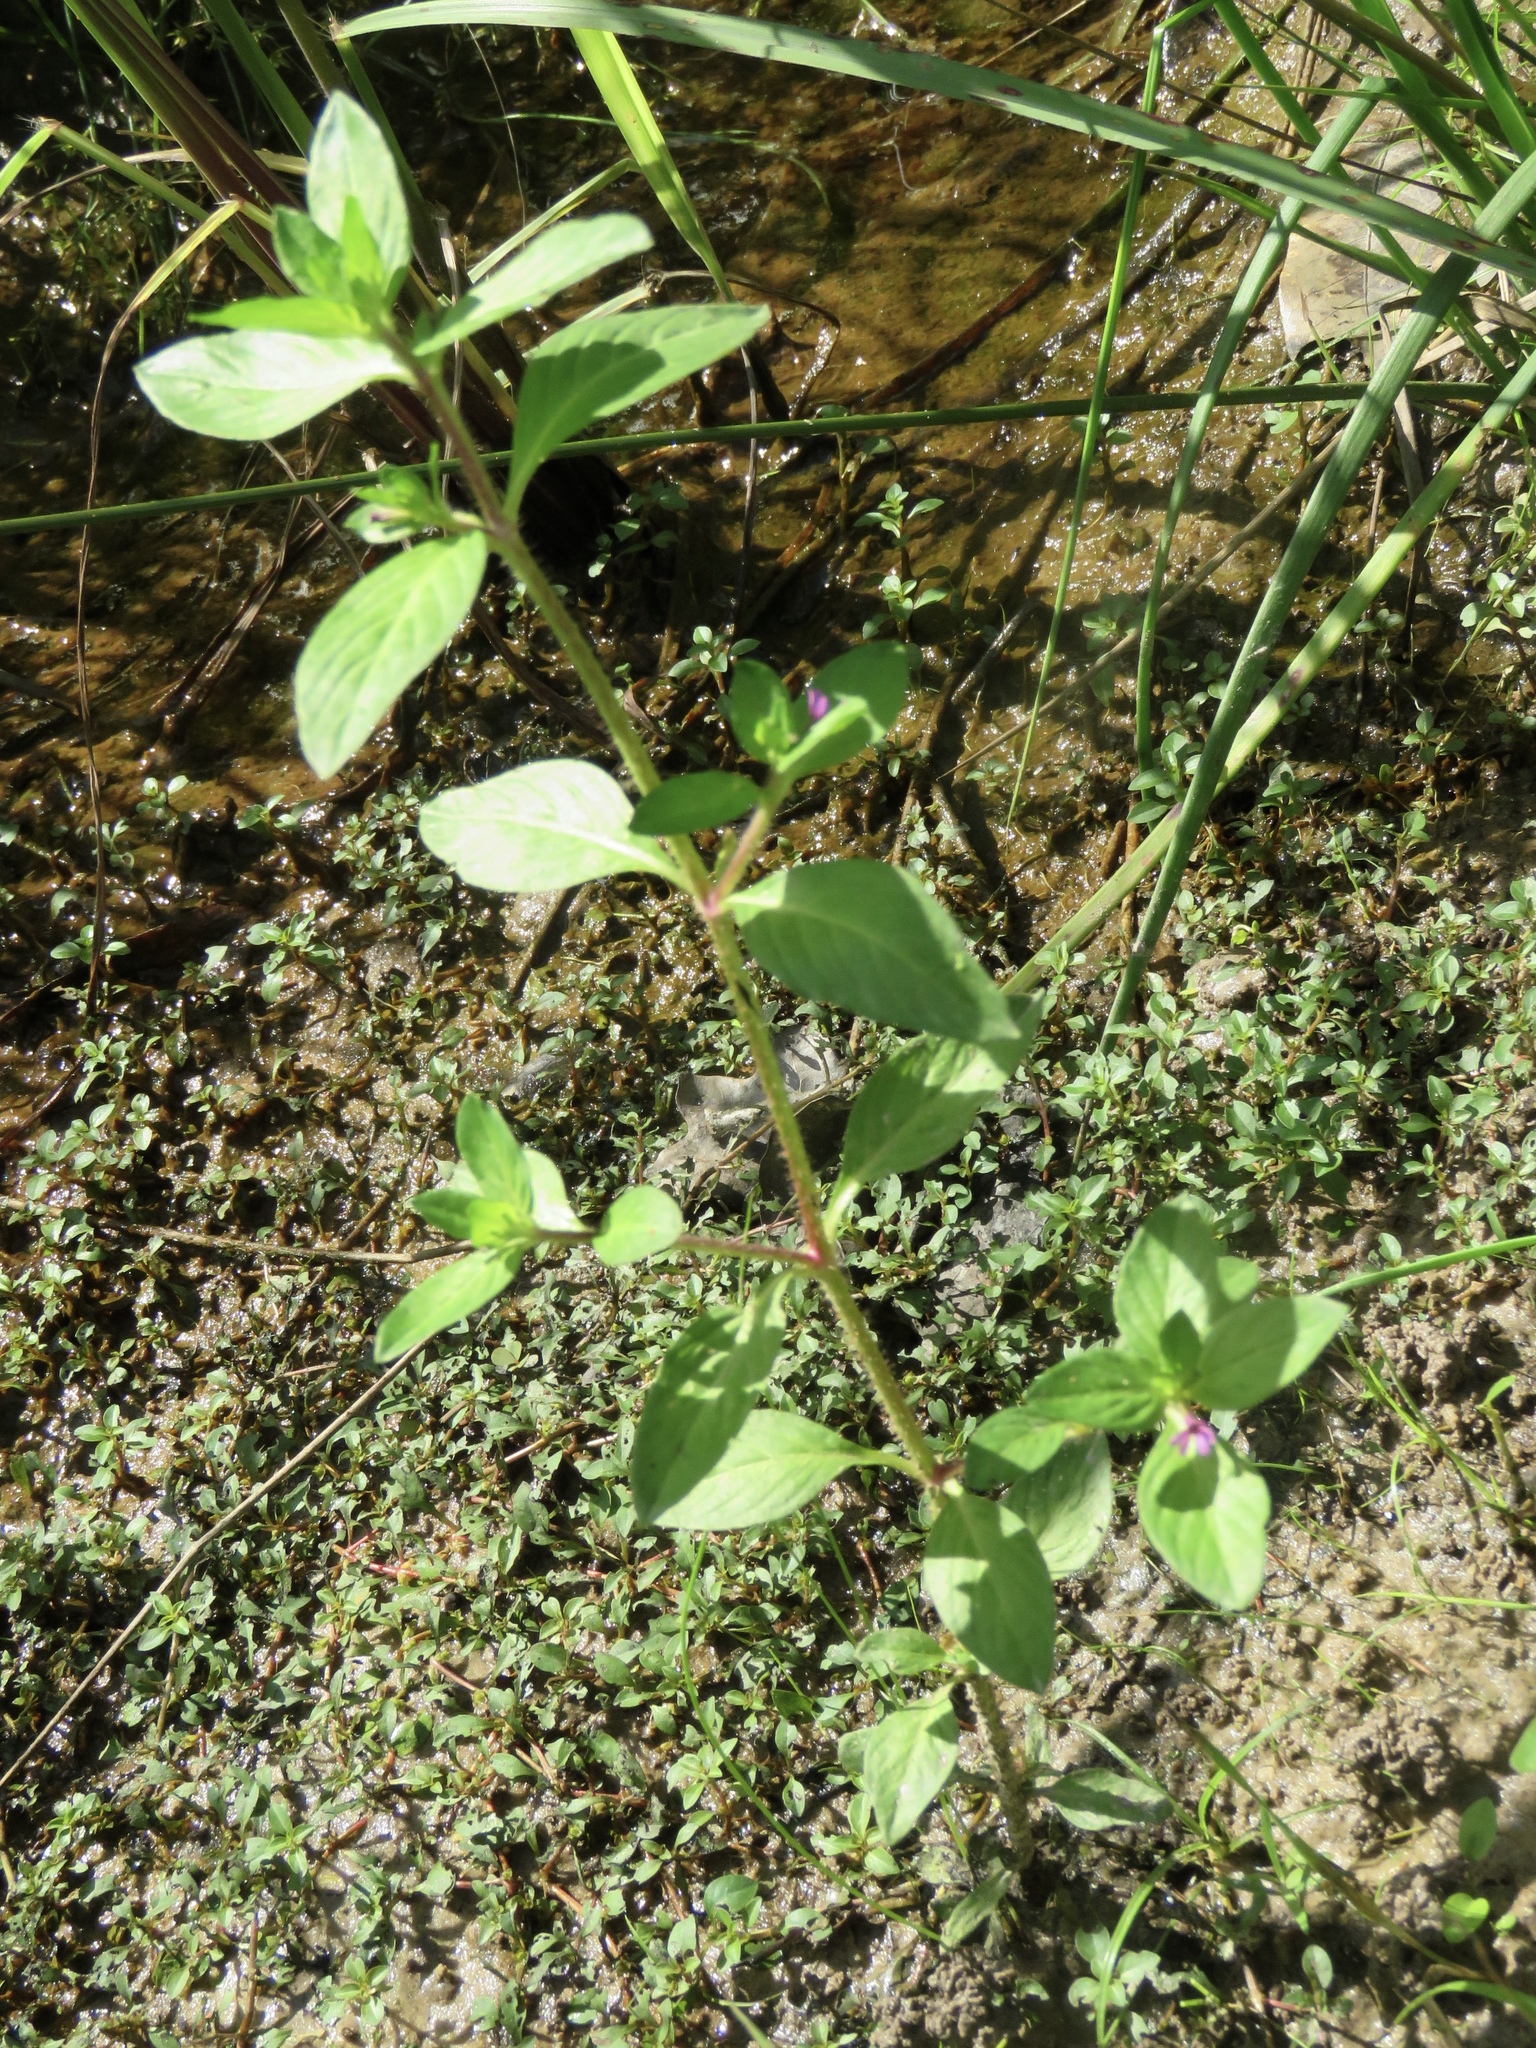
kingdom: Plantae
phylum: Tracheophyta
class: Magnoliopsida
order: Myrtales
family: Lythraceae
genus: Cuphea
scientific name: Cuphea carthagenensis
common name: Colombian waxweed
